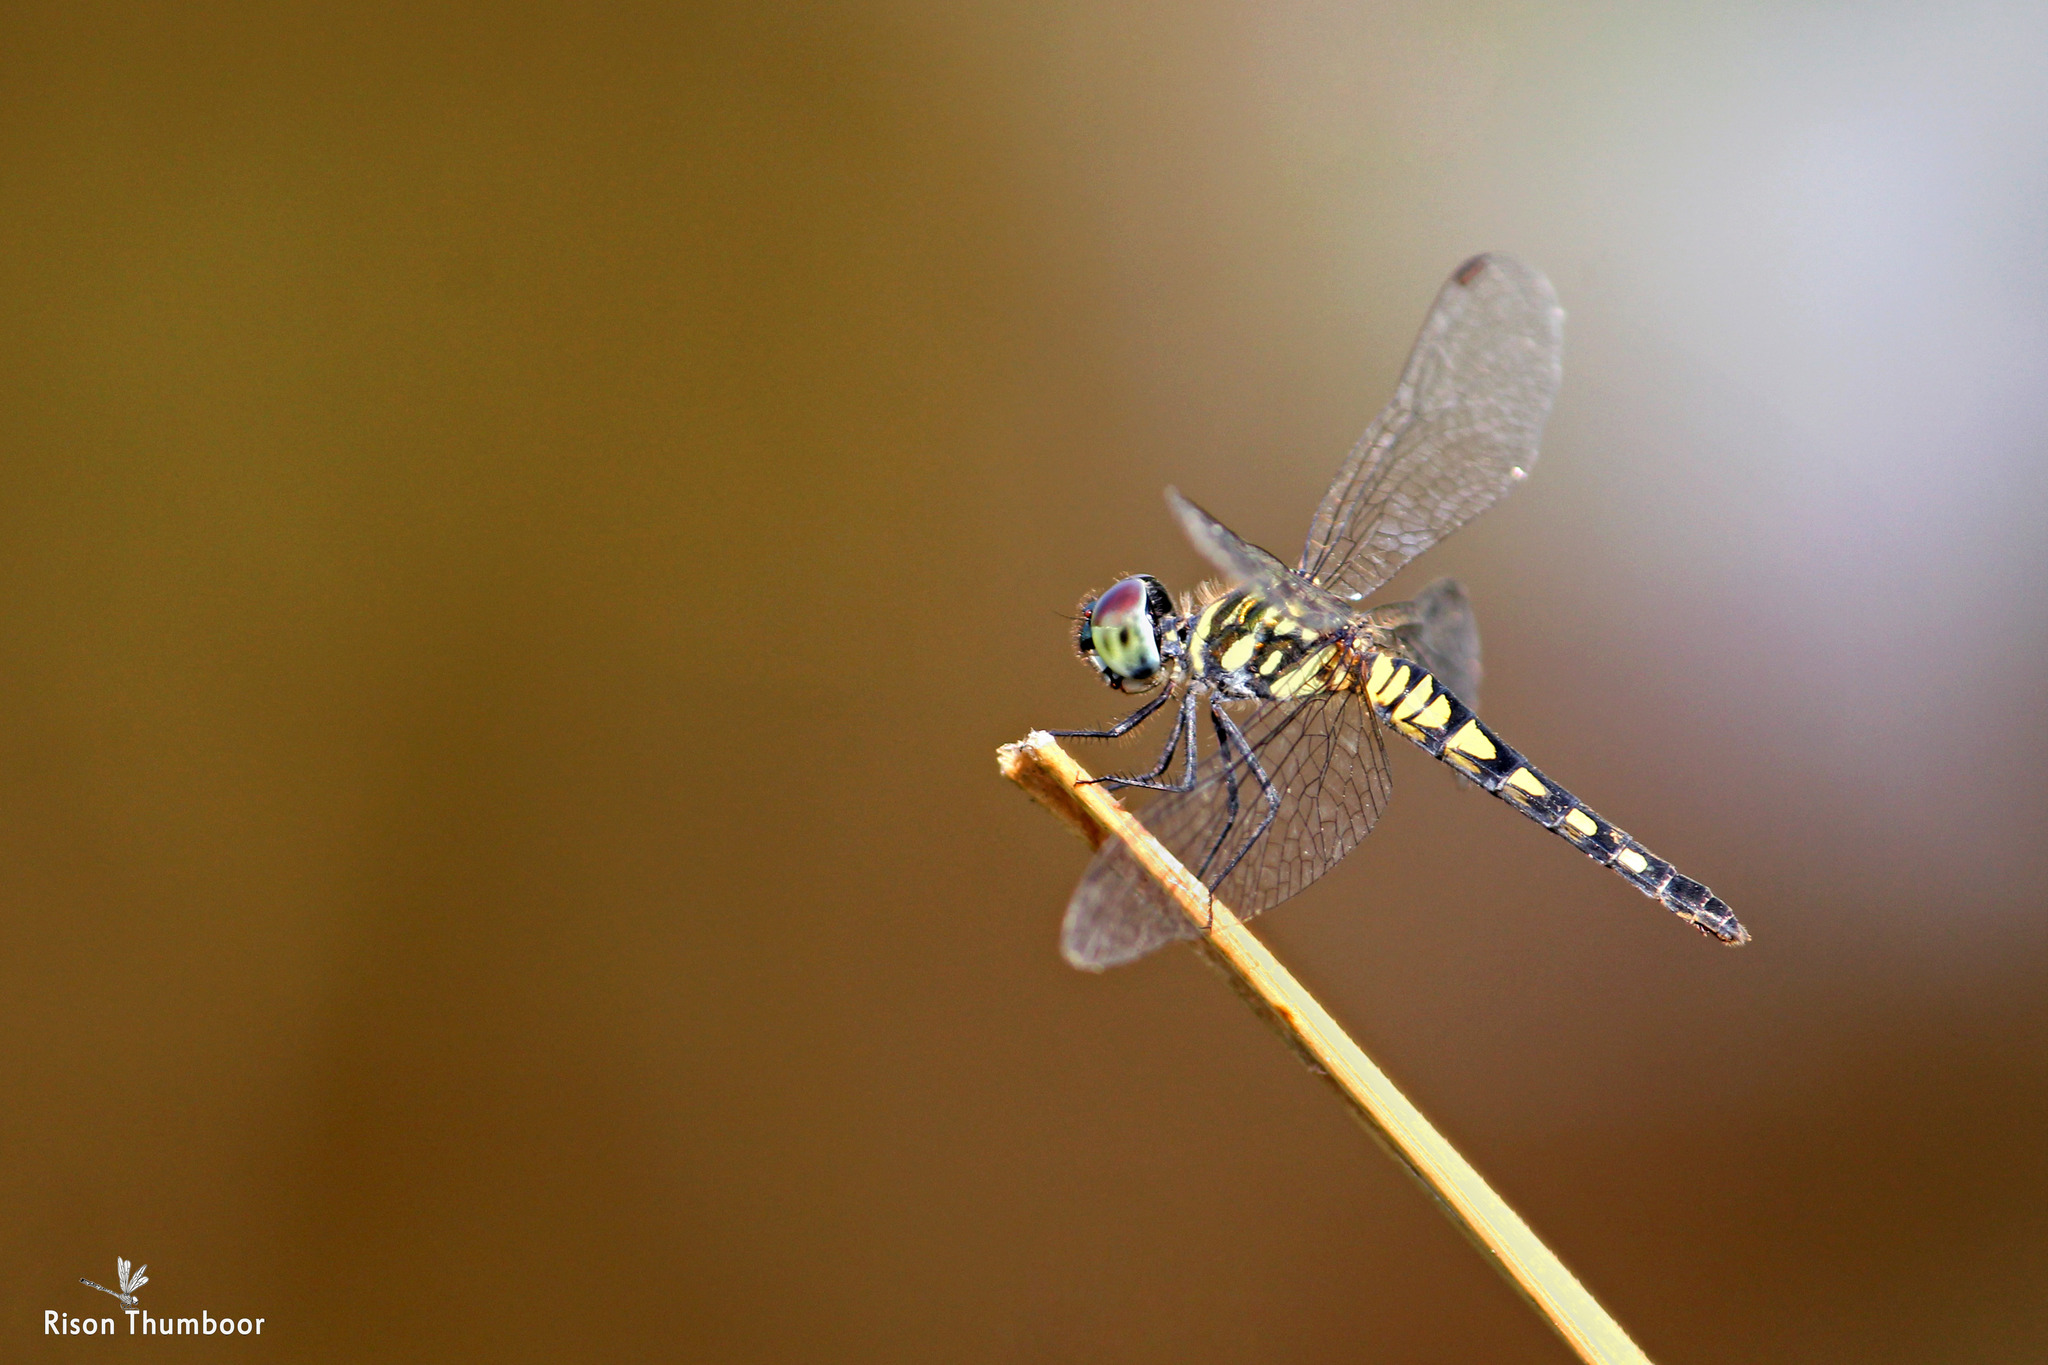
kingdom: Animalia
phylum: Arthropoda
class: Insecta
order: Odonata
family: Libellulidae
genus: Brachydiplax
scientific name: Brachydiplax sobrina
